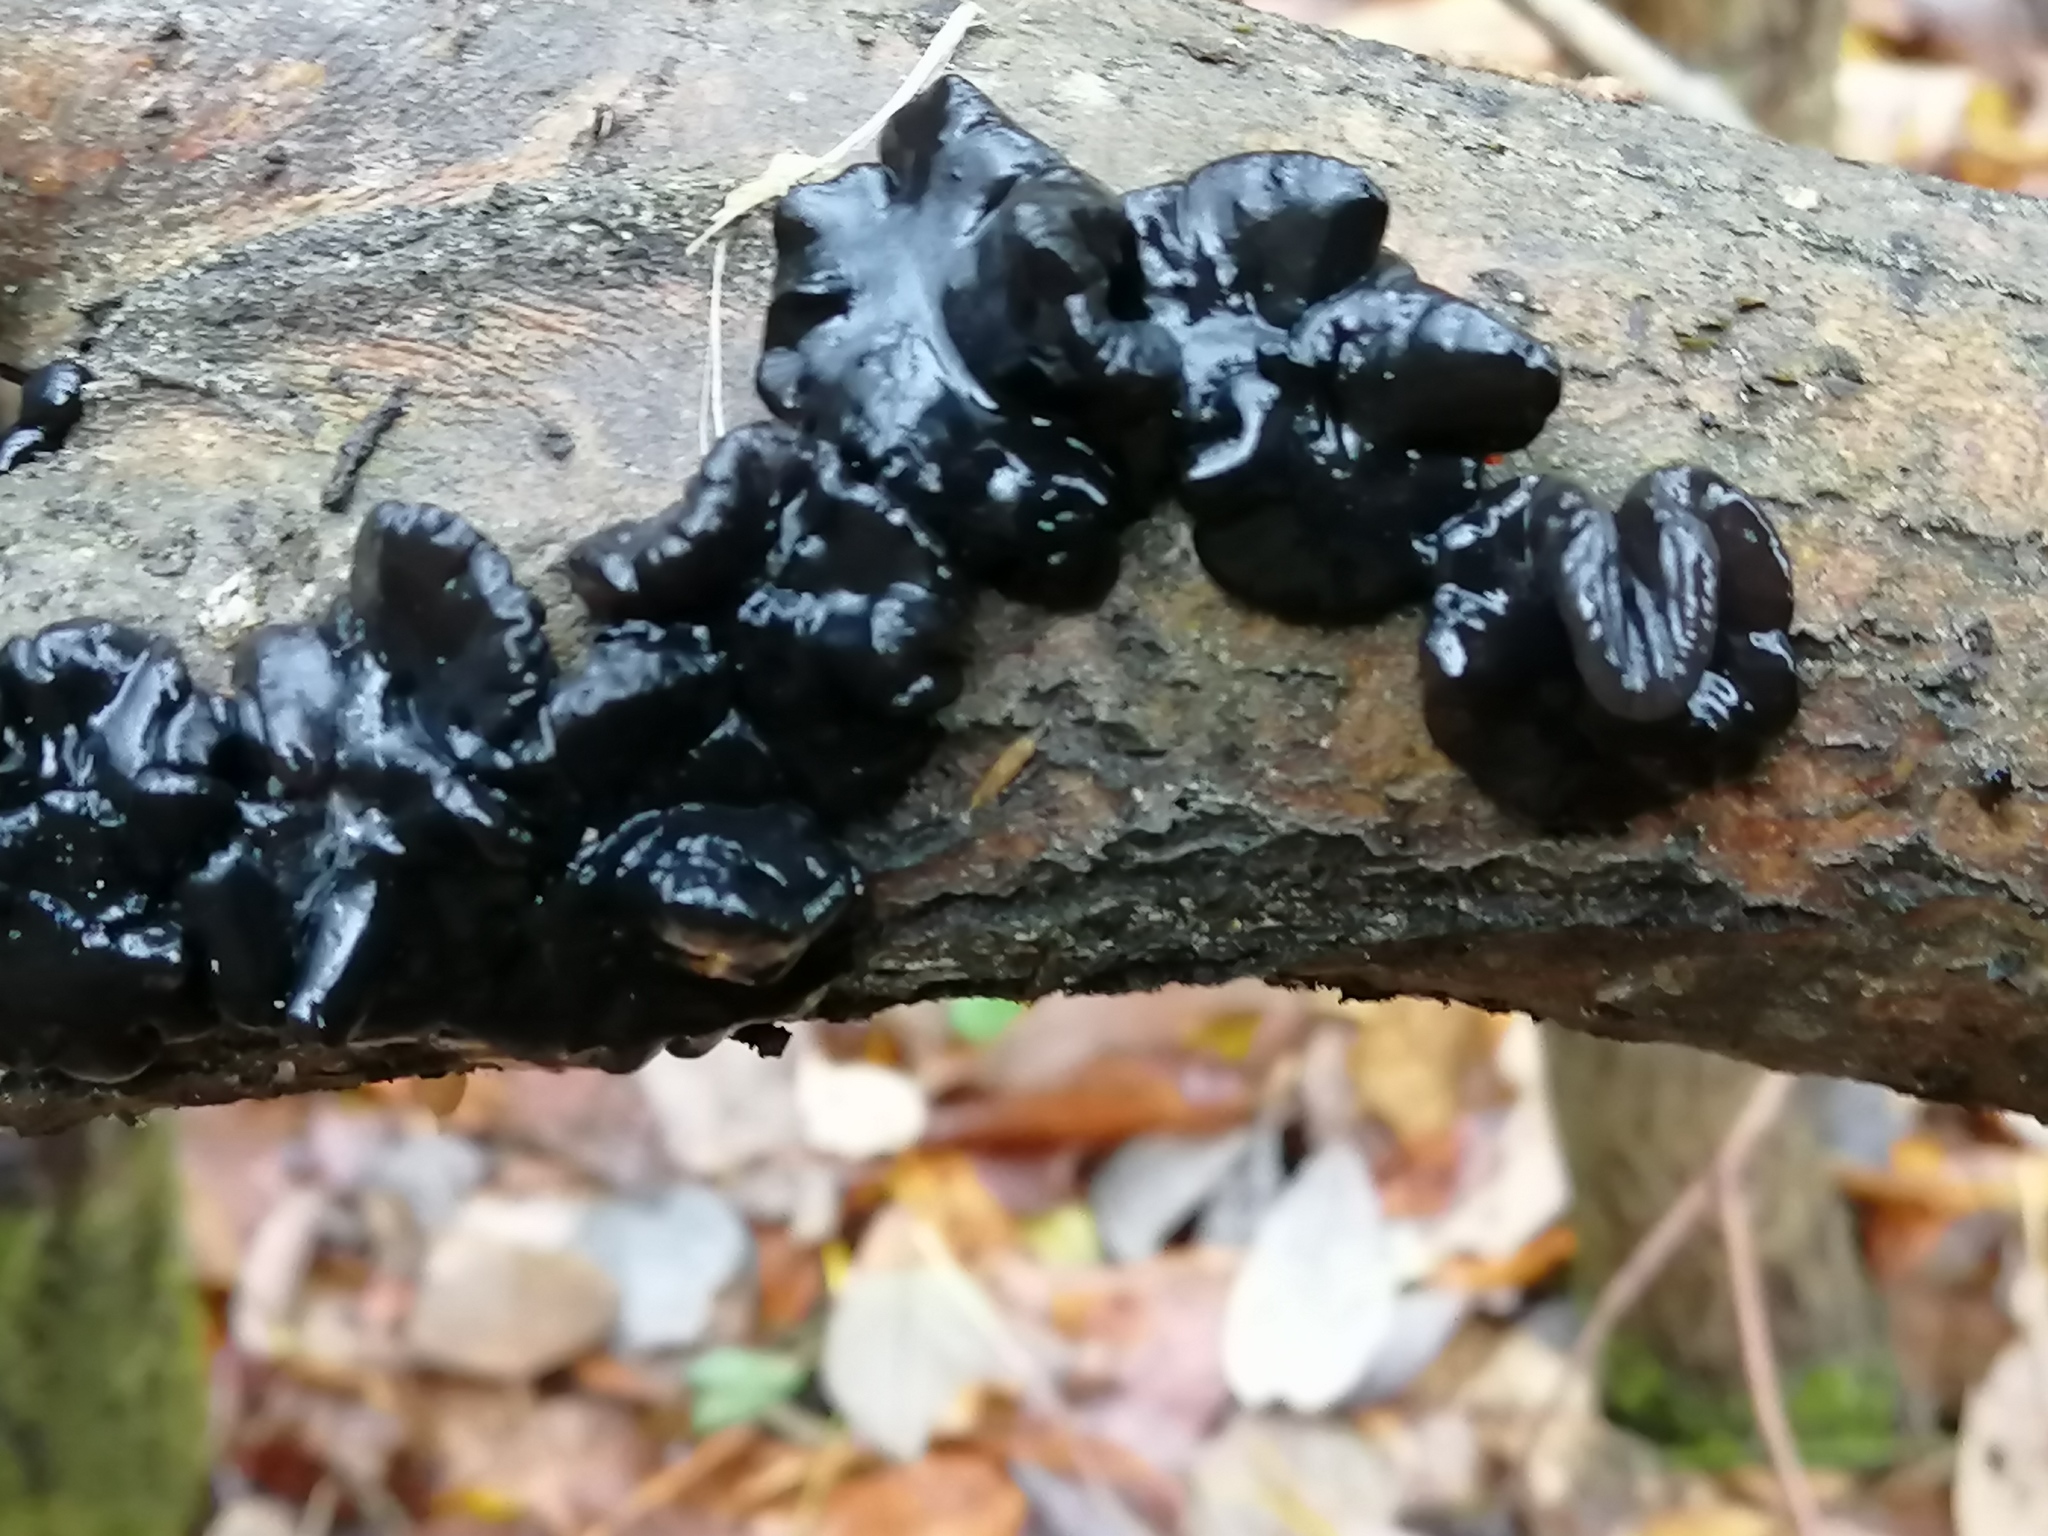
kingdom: Fungi
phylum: Basidiomycota
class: Agaricomycetes
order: Auriculariales
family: Auriculariaceae
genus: Exidia
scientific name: Exidia glandulosa
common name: Witches' butter
